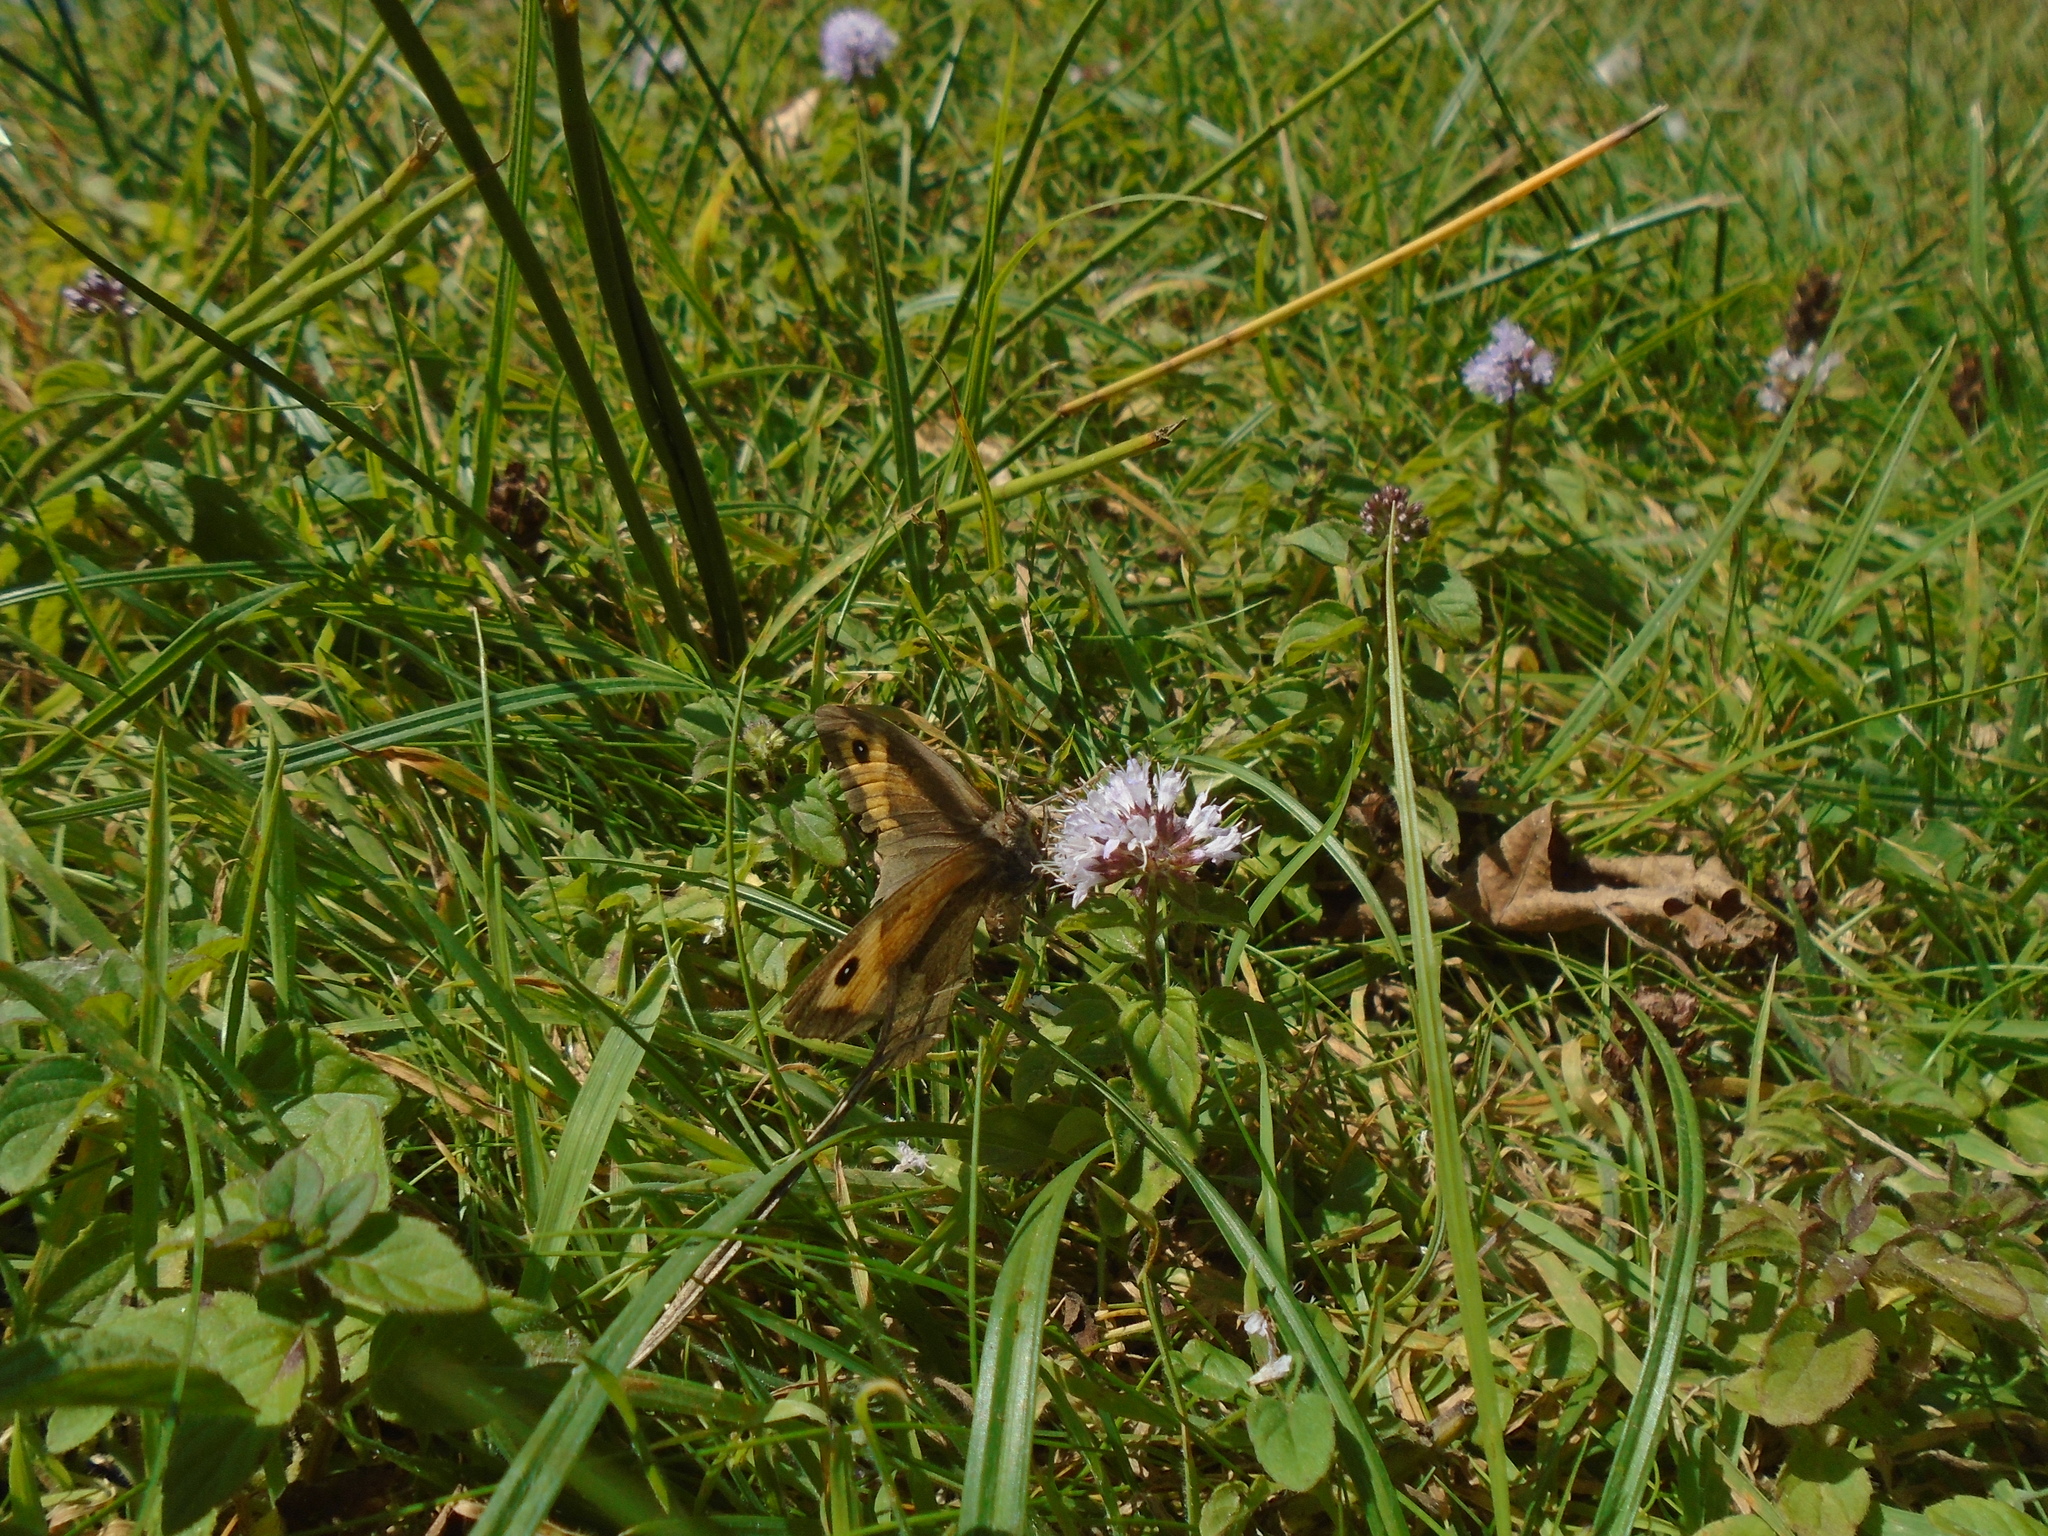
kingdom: Animalia
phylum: Arthropoda
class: Insecta
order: Lepidoptera
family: Nymphalidae
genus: Maniola
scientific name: Maniola jurtina
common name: Meadow brown
